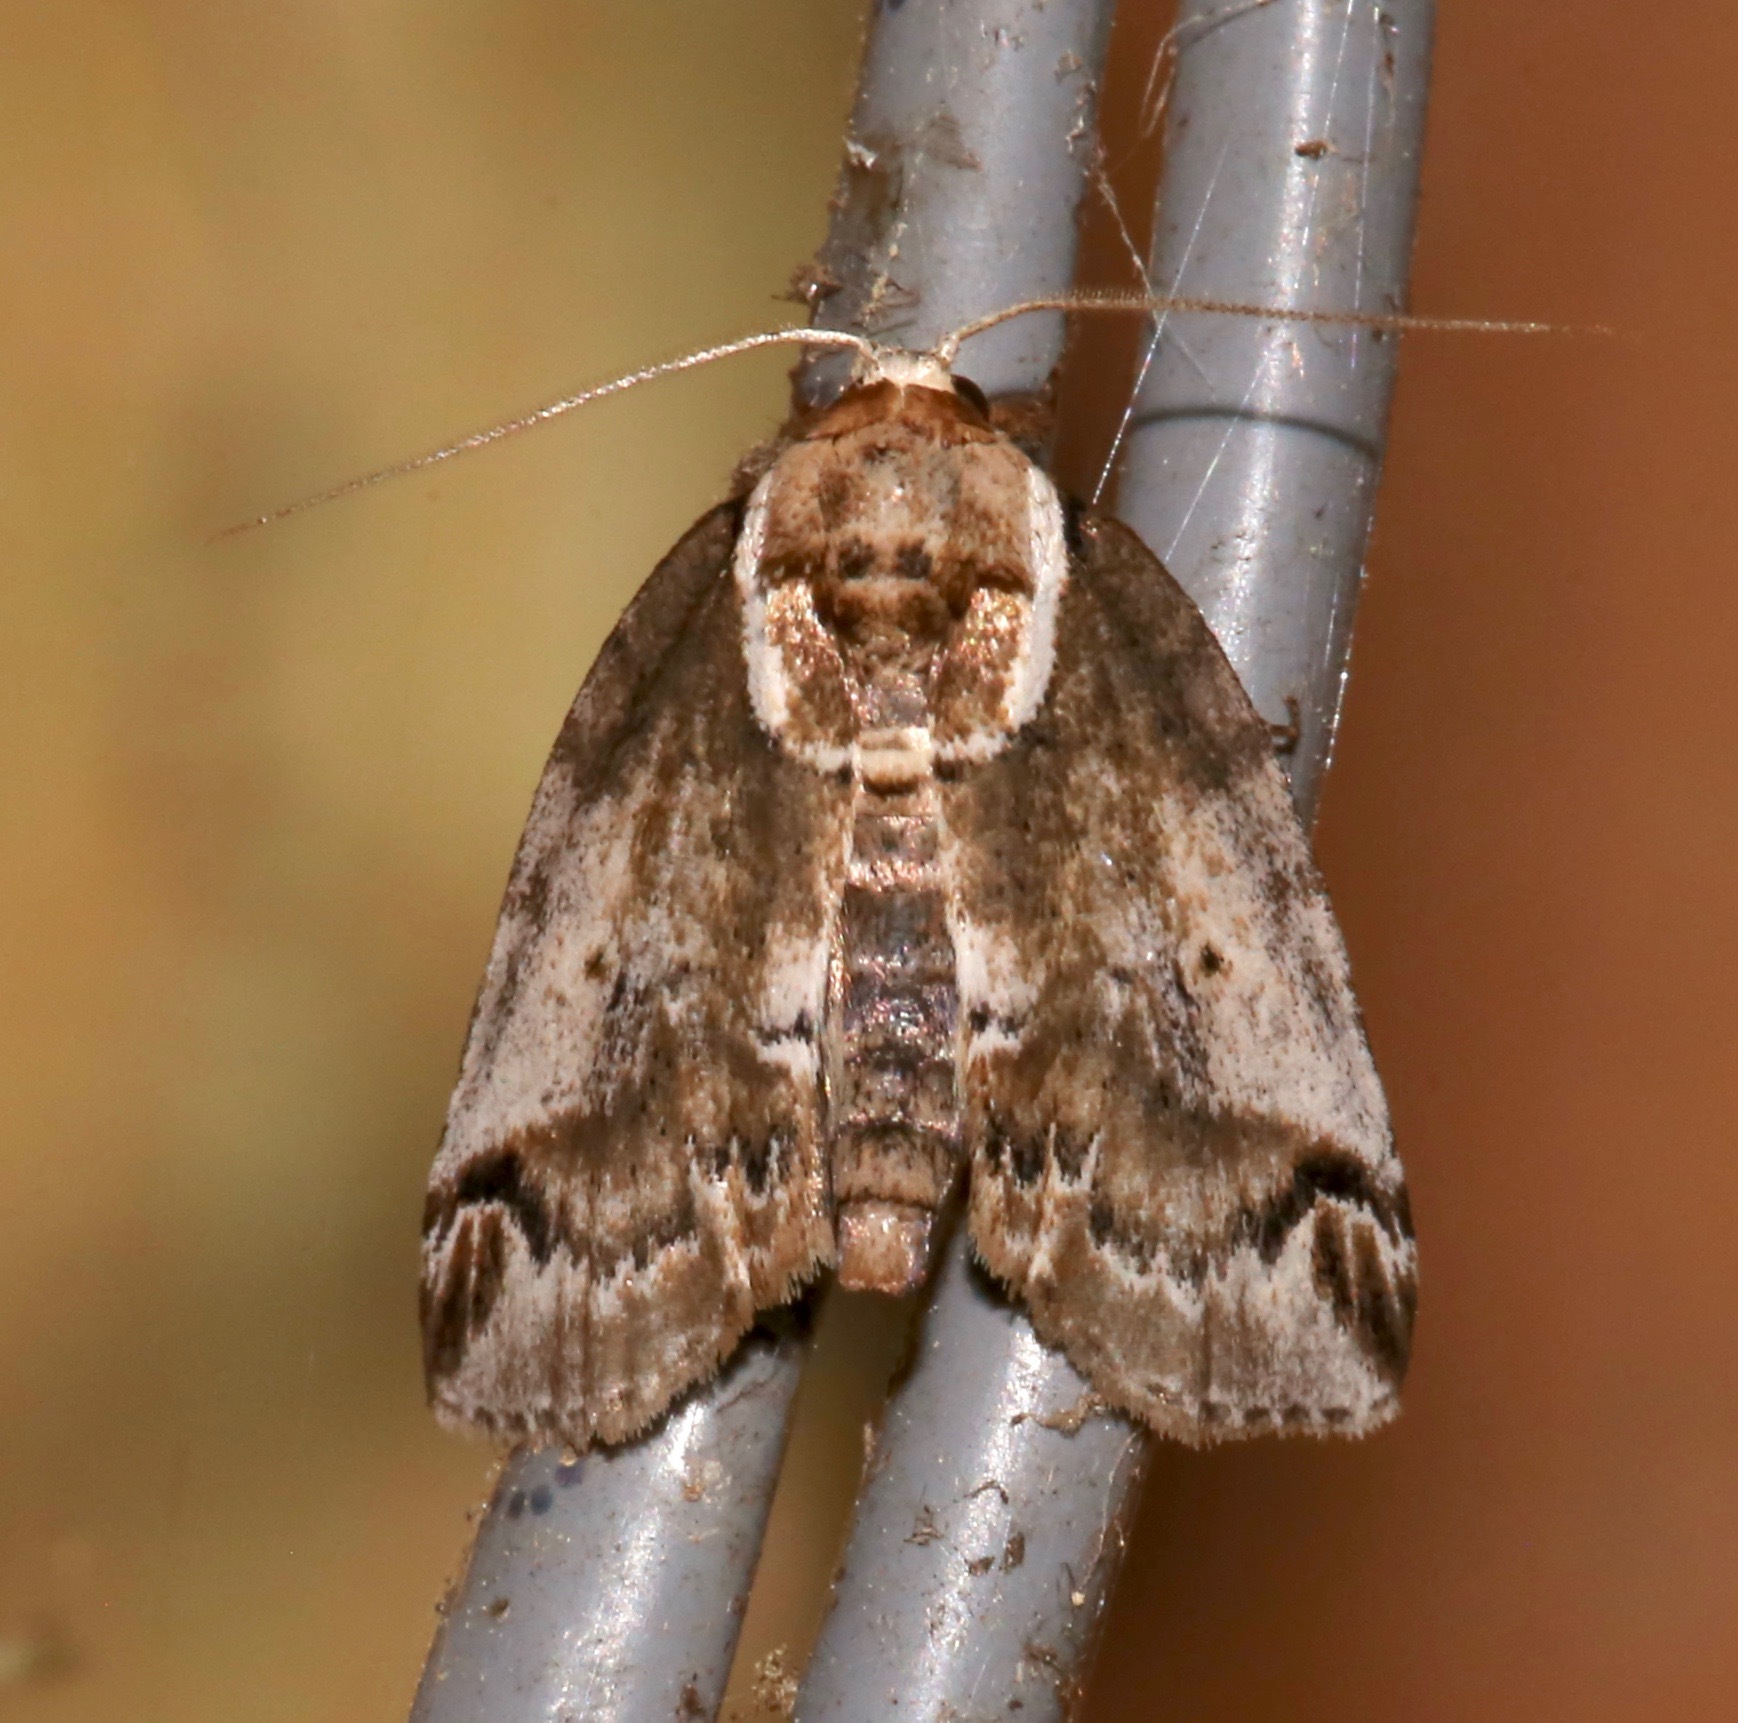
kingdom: Animalia
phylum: Arthropoda
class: Insecta
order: Lepidoptera
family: Nolidae
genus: Baileya
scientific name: Baileya ophthalmica
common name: Eyed baileya moth
